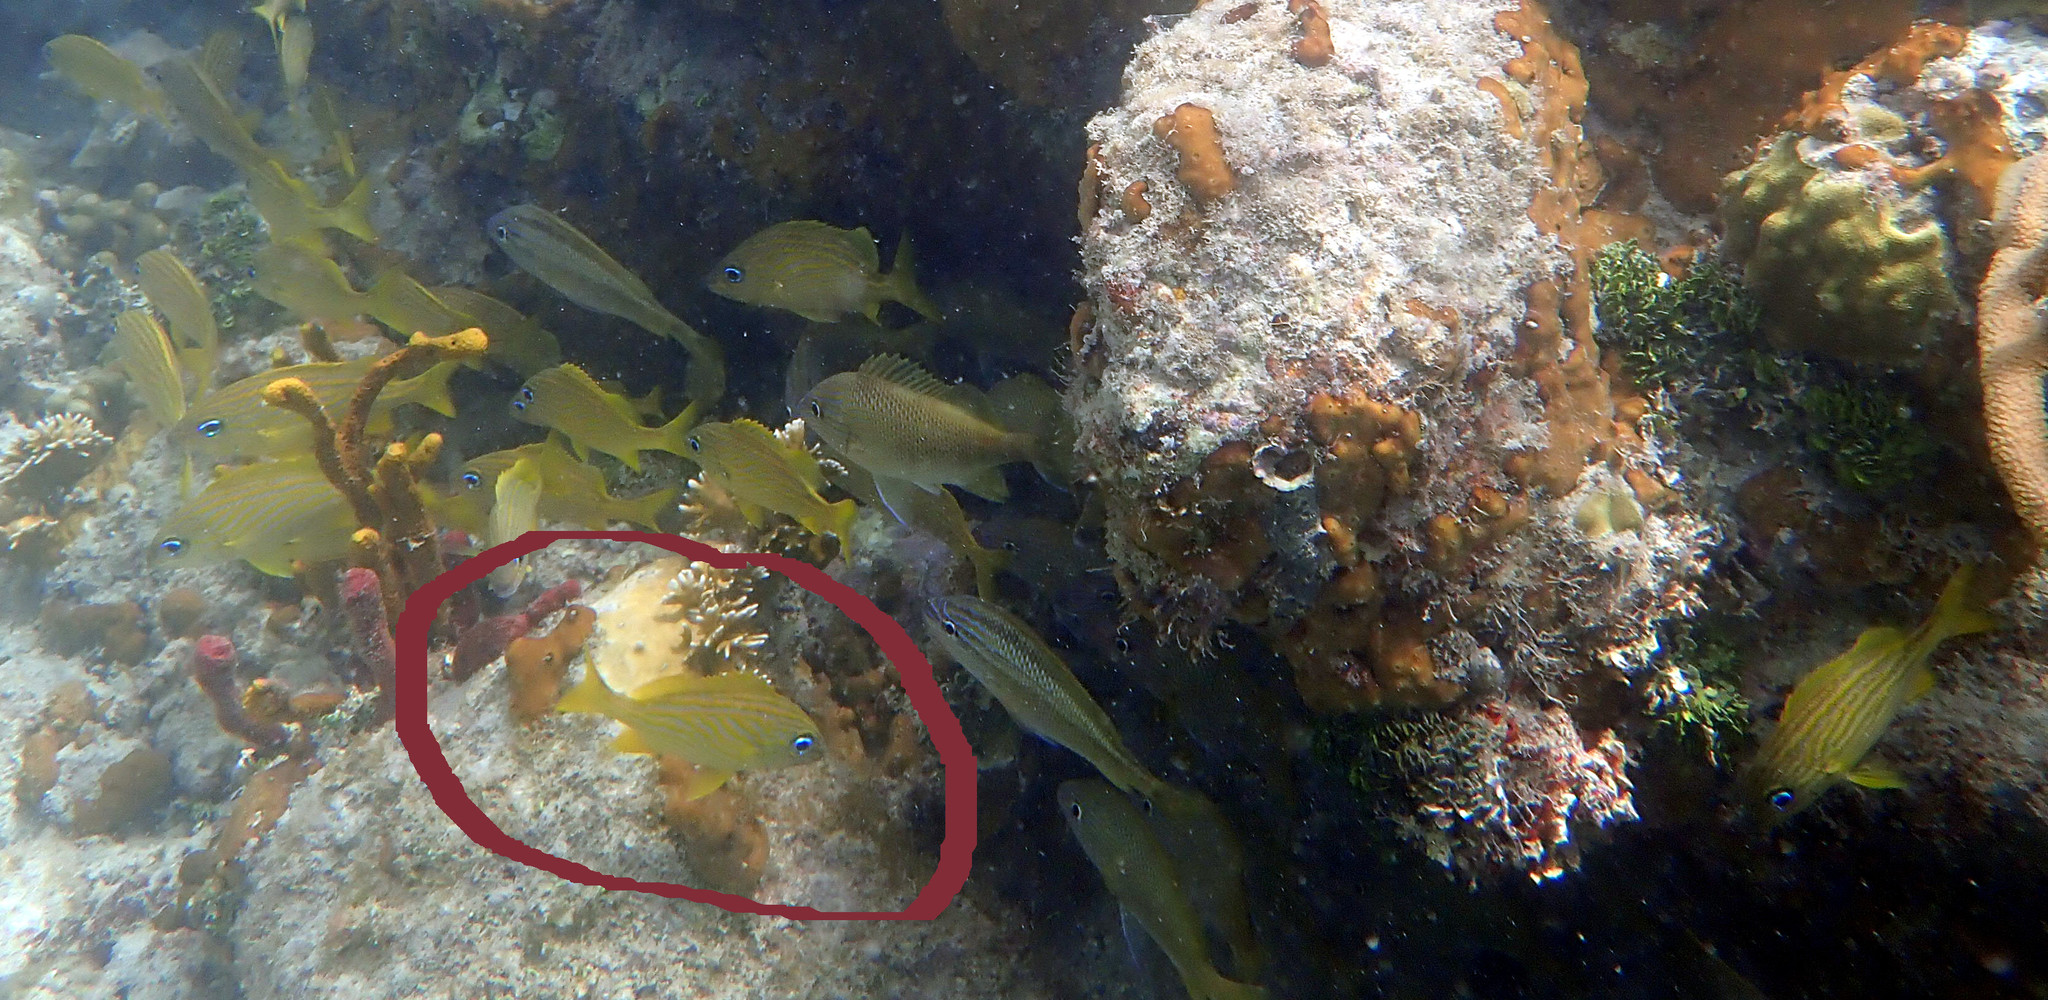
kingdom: Animalia
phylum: Chordata
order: Perciformes
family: Haemulidae
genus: Haemulon
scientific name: Haemulon flavolineatum
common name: French grunt
